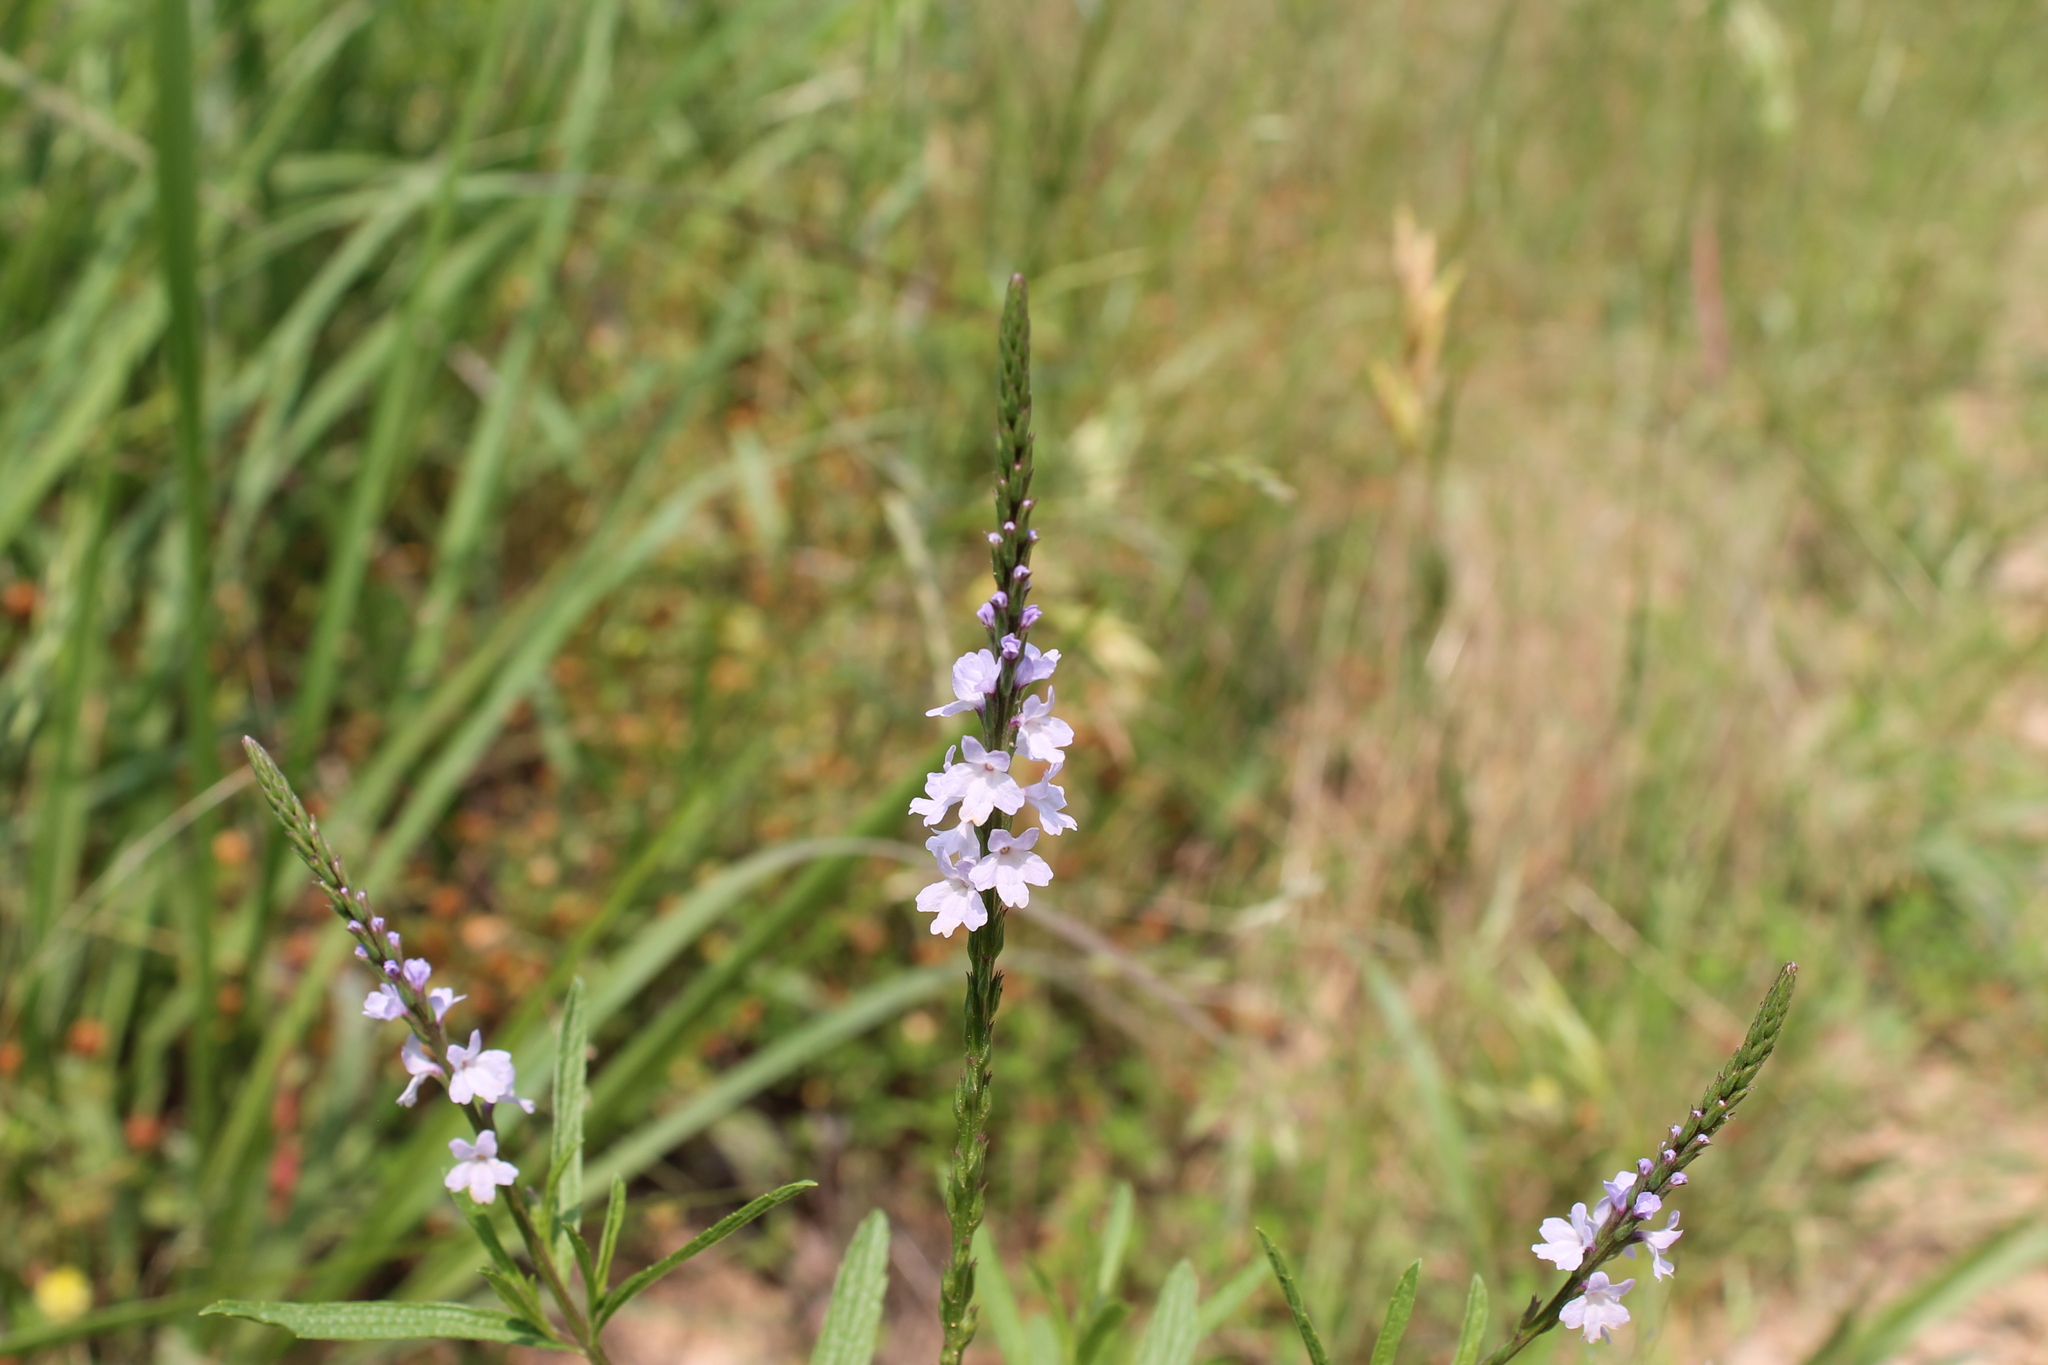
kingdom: Plantae
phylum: Tracheophyta
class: Magnoliopsida
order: Lamiales
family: Verbenaceae
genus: Verbena
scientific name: Verbena simplex
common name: Narrow-leaf vervain
